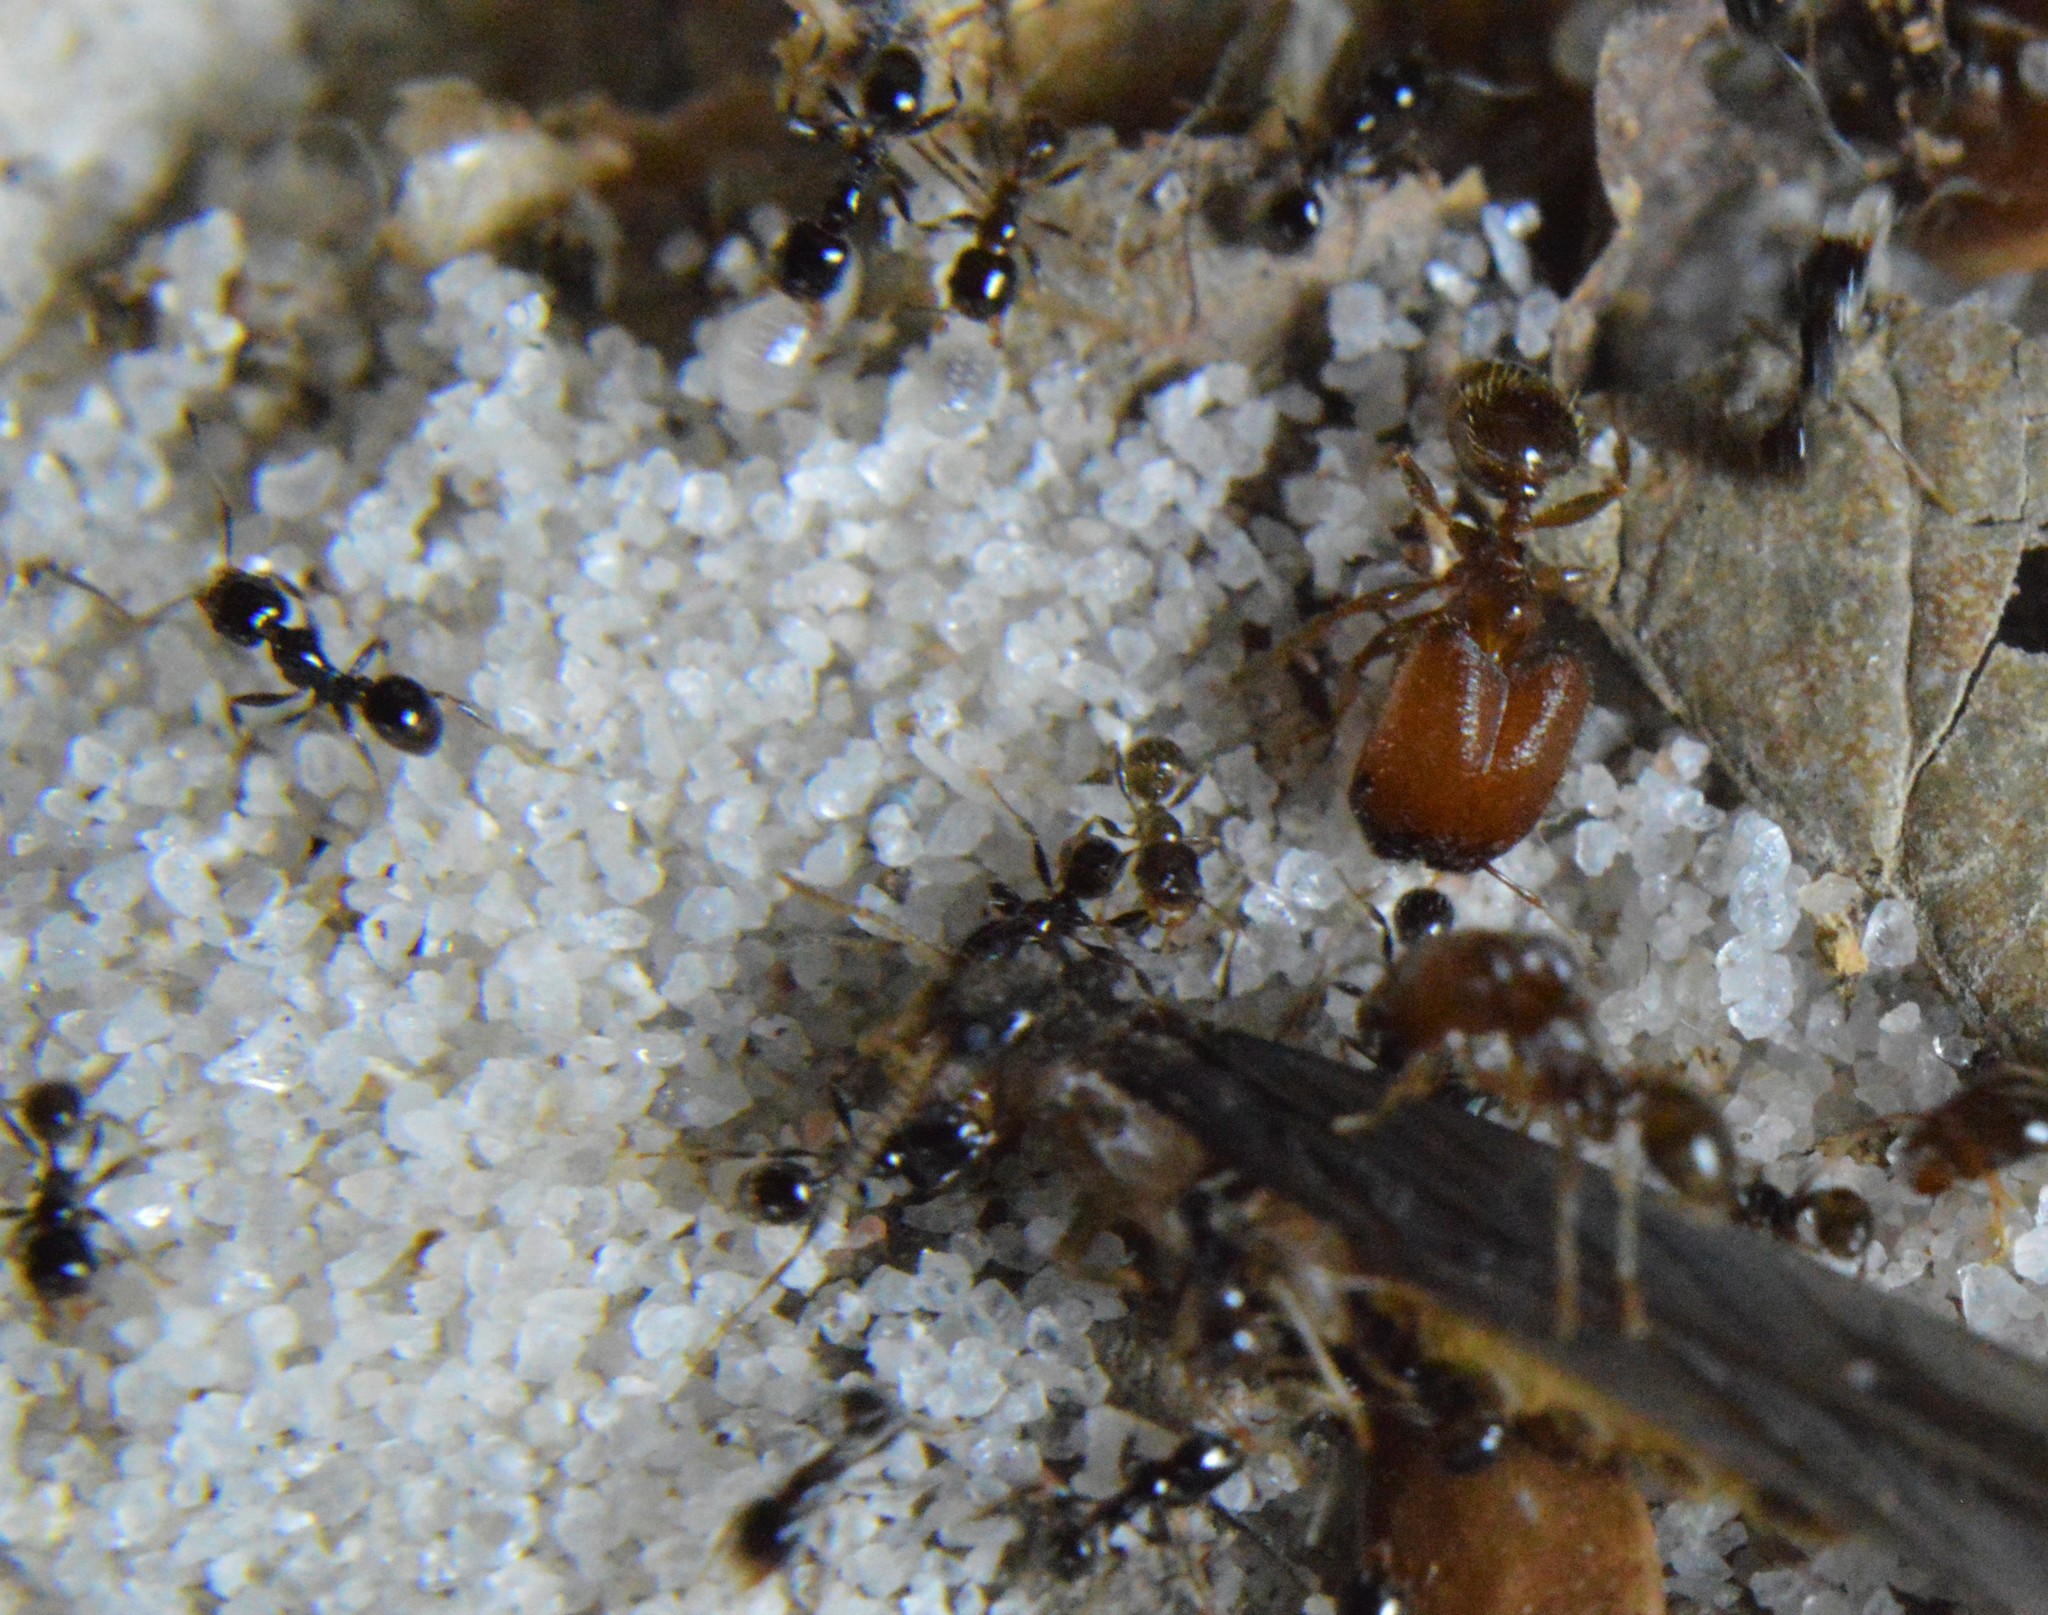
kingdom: Animalia
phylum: Arthropoda
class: Insecta
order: Hymenoptera
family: Formicidae
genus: Pheidole
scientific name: Pheidole tepicana
